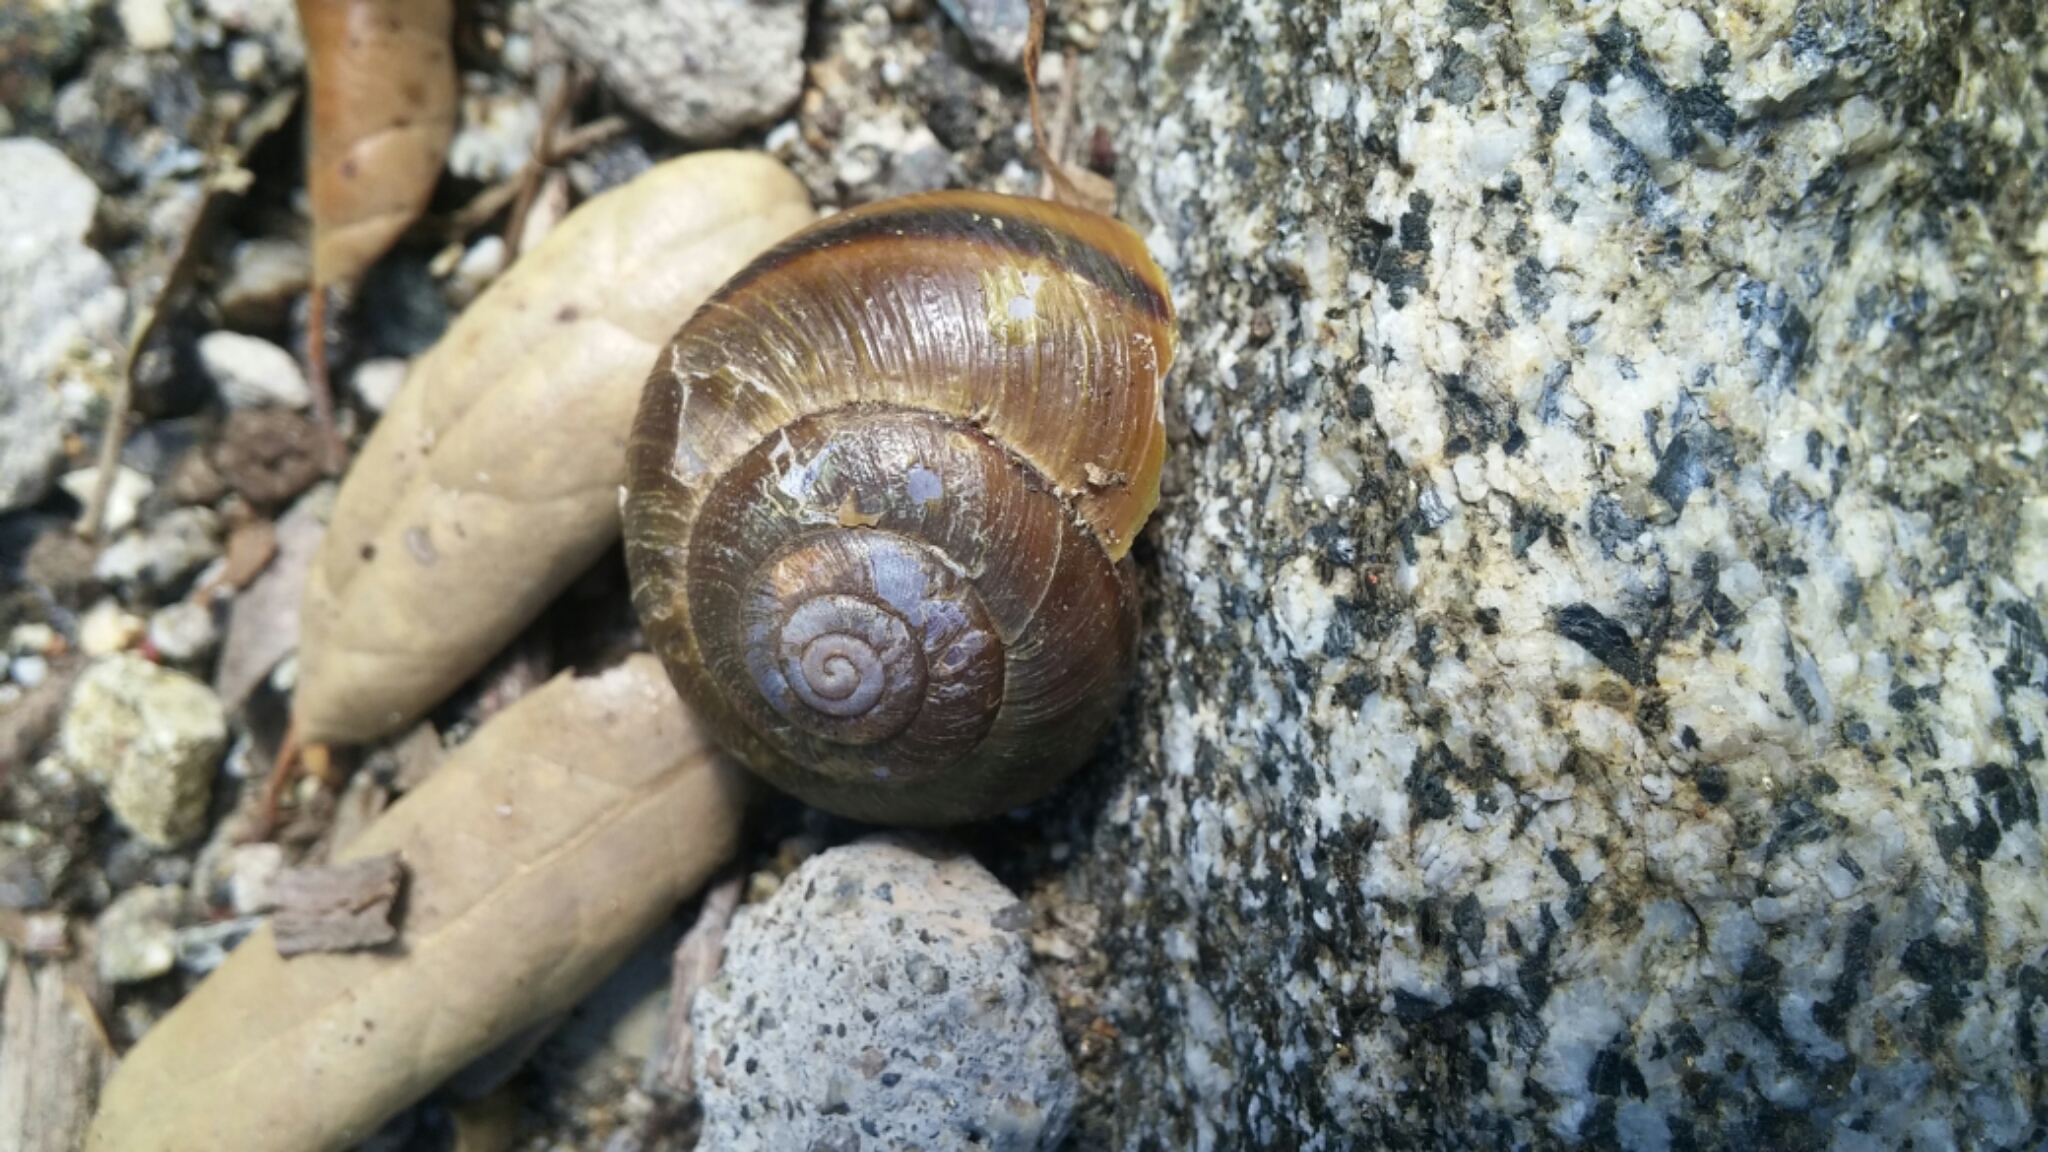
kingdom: Animalia
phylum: Mollusca
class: Gastropoda
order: Stylommatophora
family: Xanthonychidae
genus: Helminthoglypta
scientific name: Helminthoglypta tudiculata
